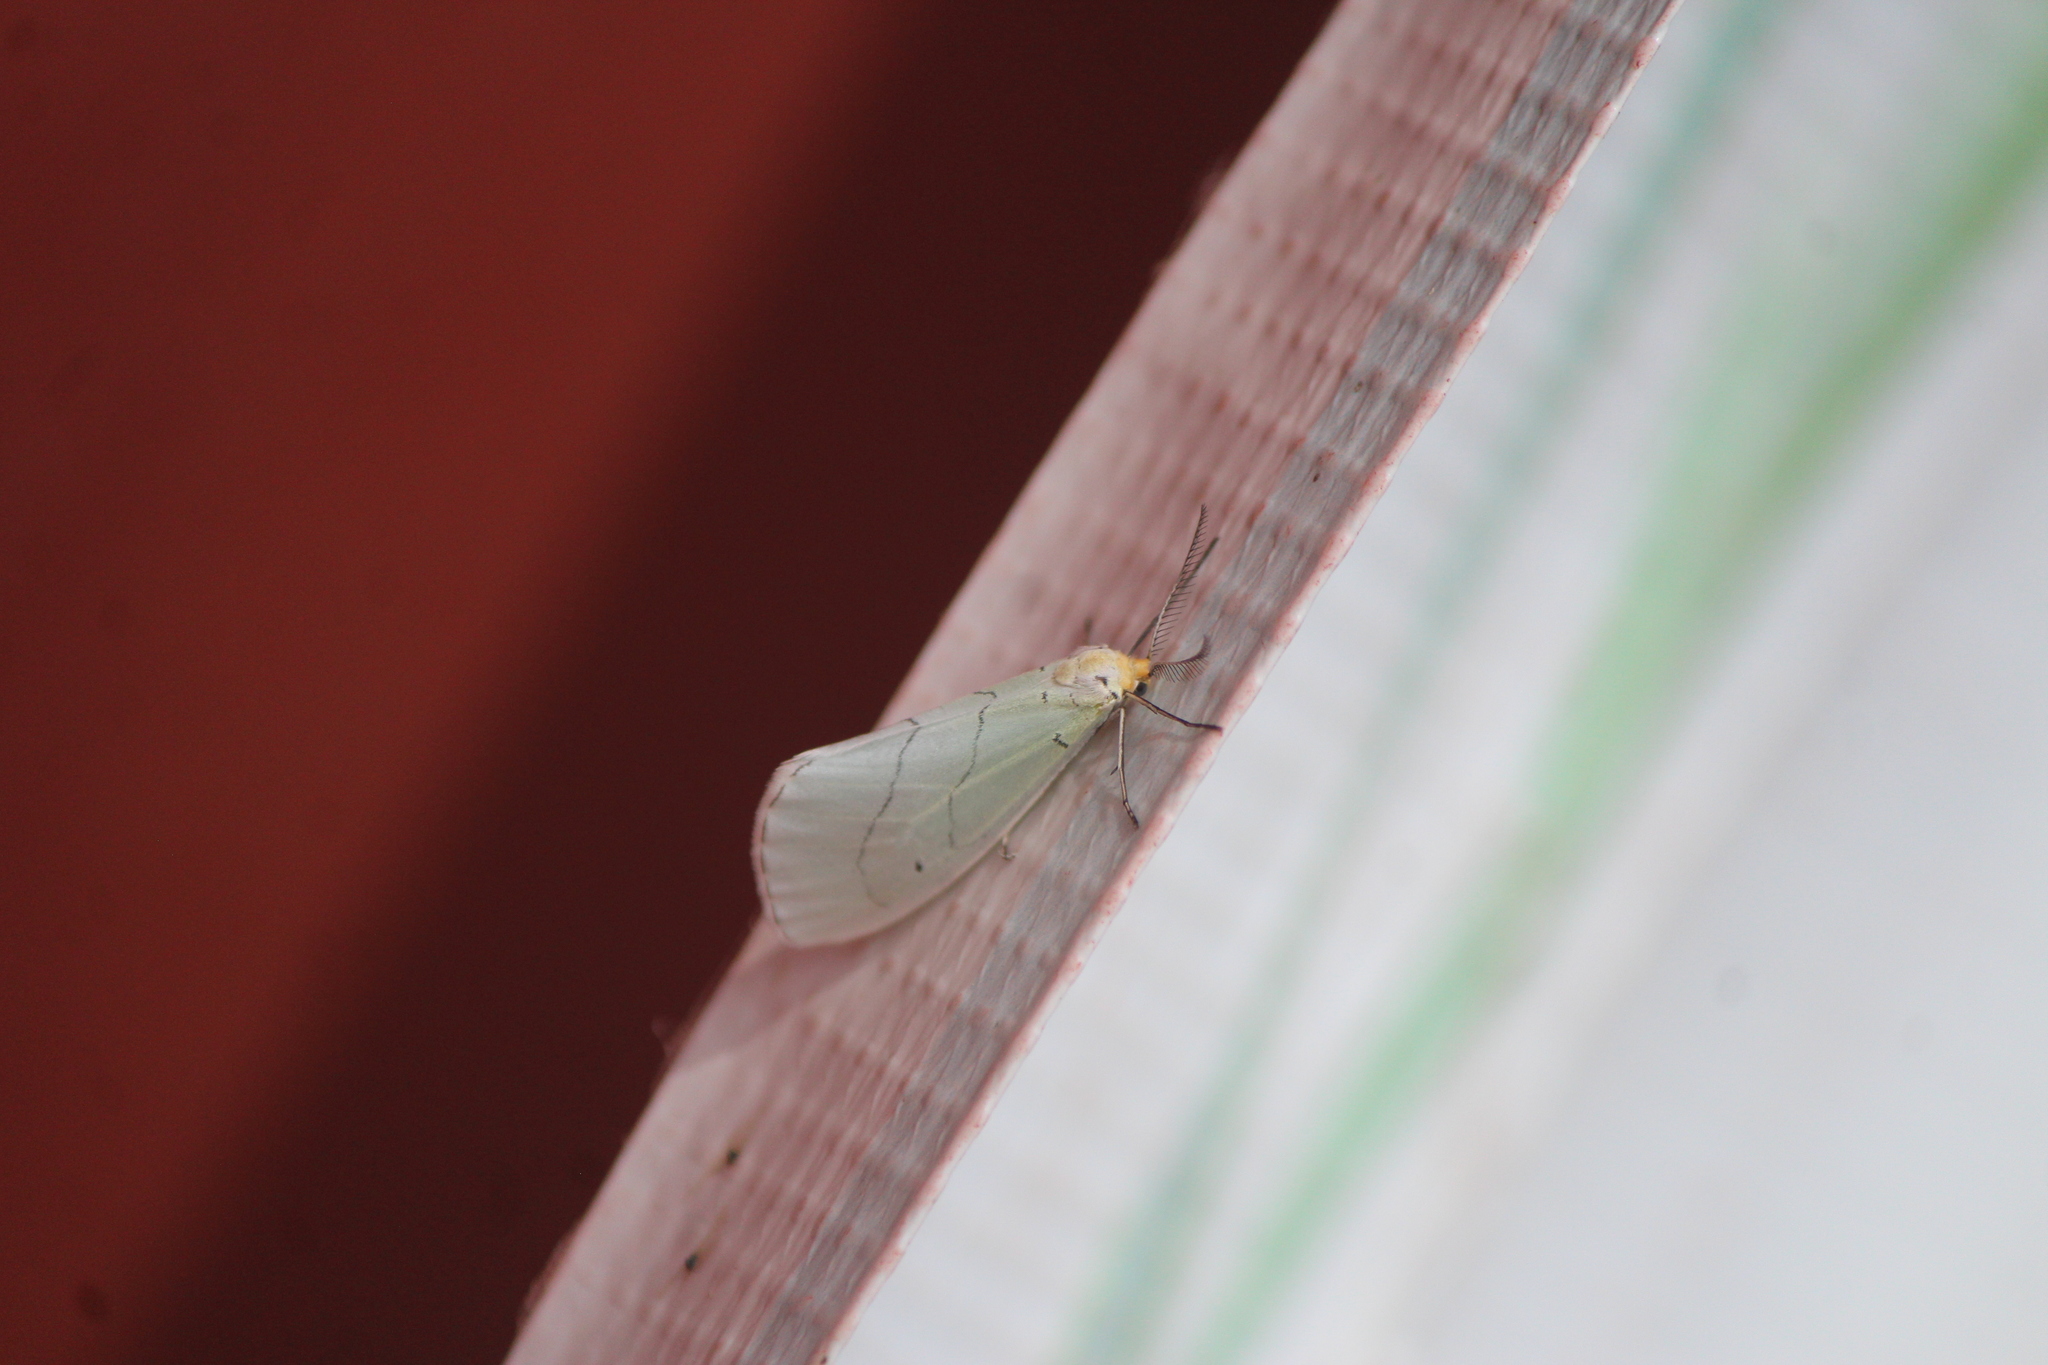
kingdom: Animalia
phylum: Arthropoda
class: Insecta
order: Lepidoptera
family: Doidae
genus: Leuculodes
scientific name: Leuculodes lacteolaria
